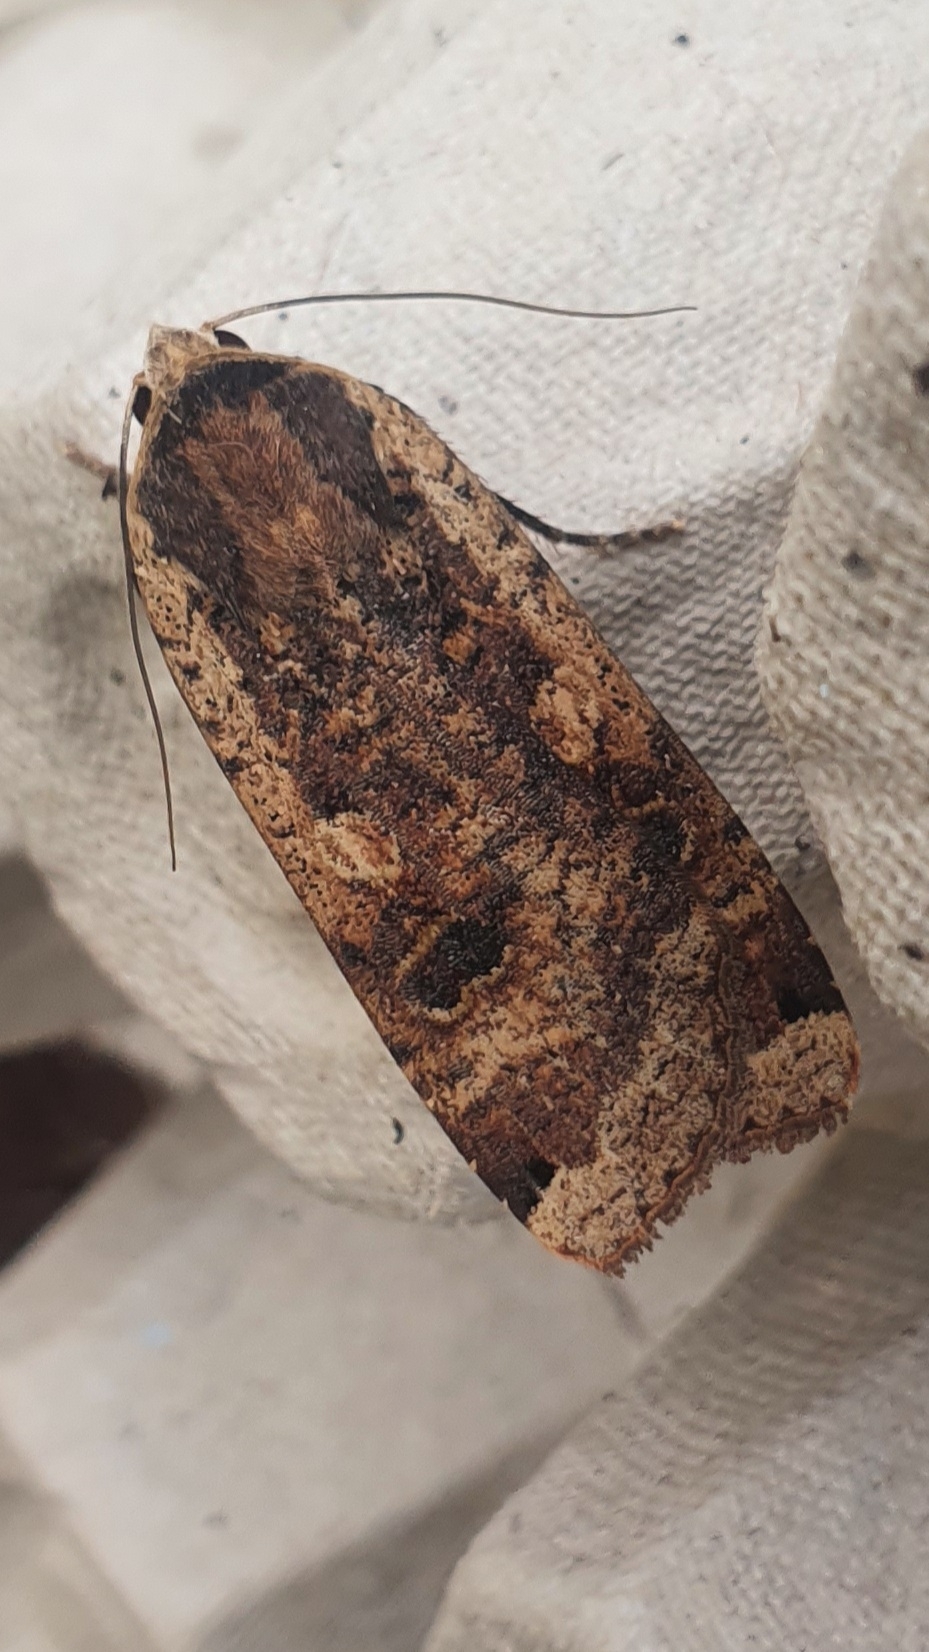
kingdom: Animalia
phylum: Arthropoda
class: Insecta
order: Lepidoptera
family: Noctuidae
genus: Noctua
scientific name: Noctua pronuba
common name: Large yellow underwing
